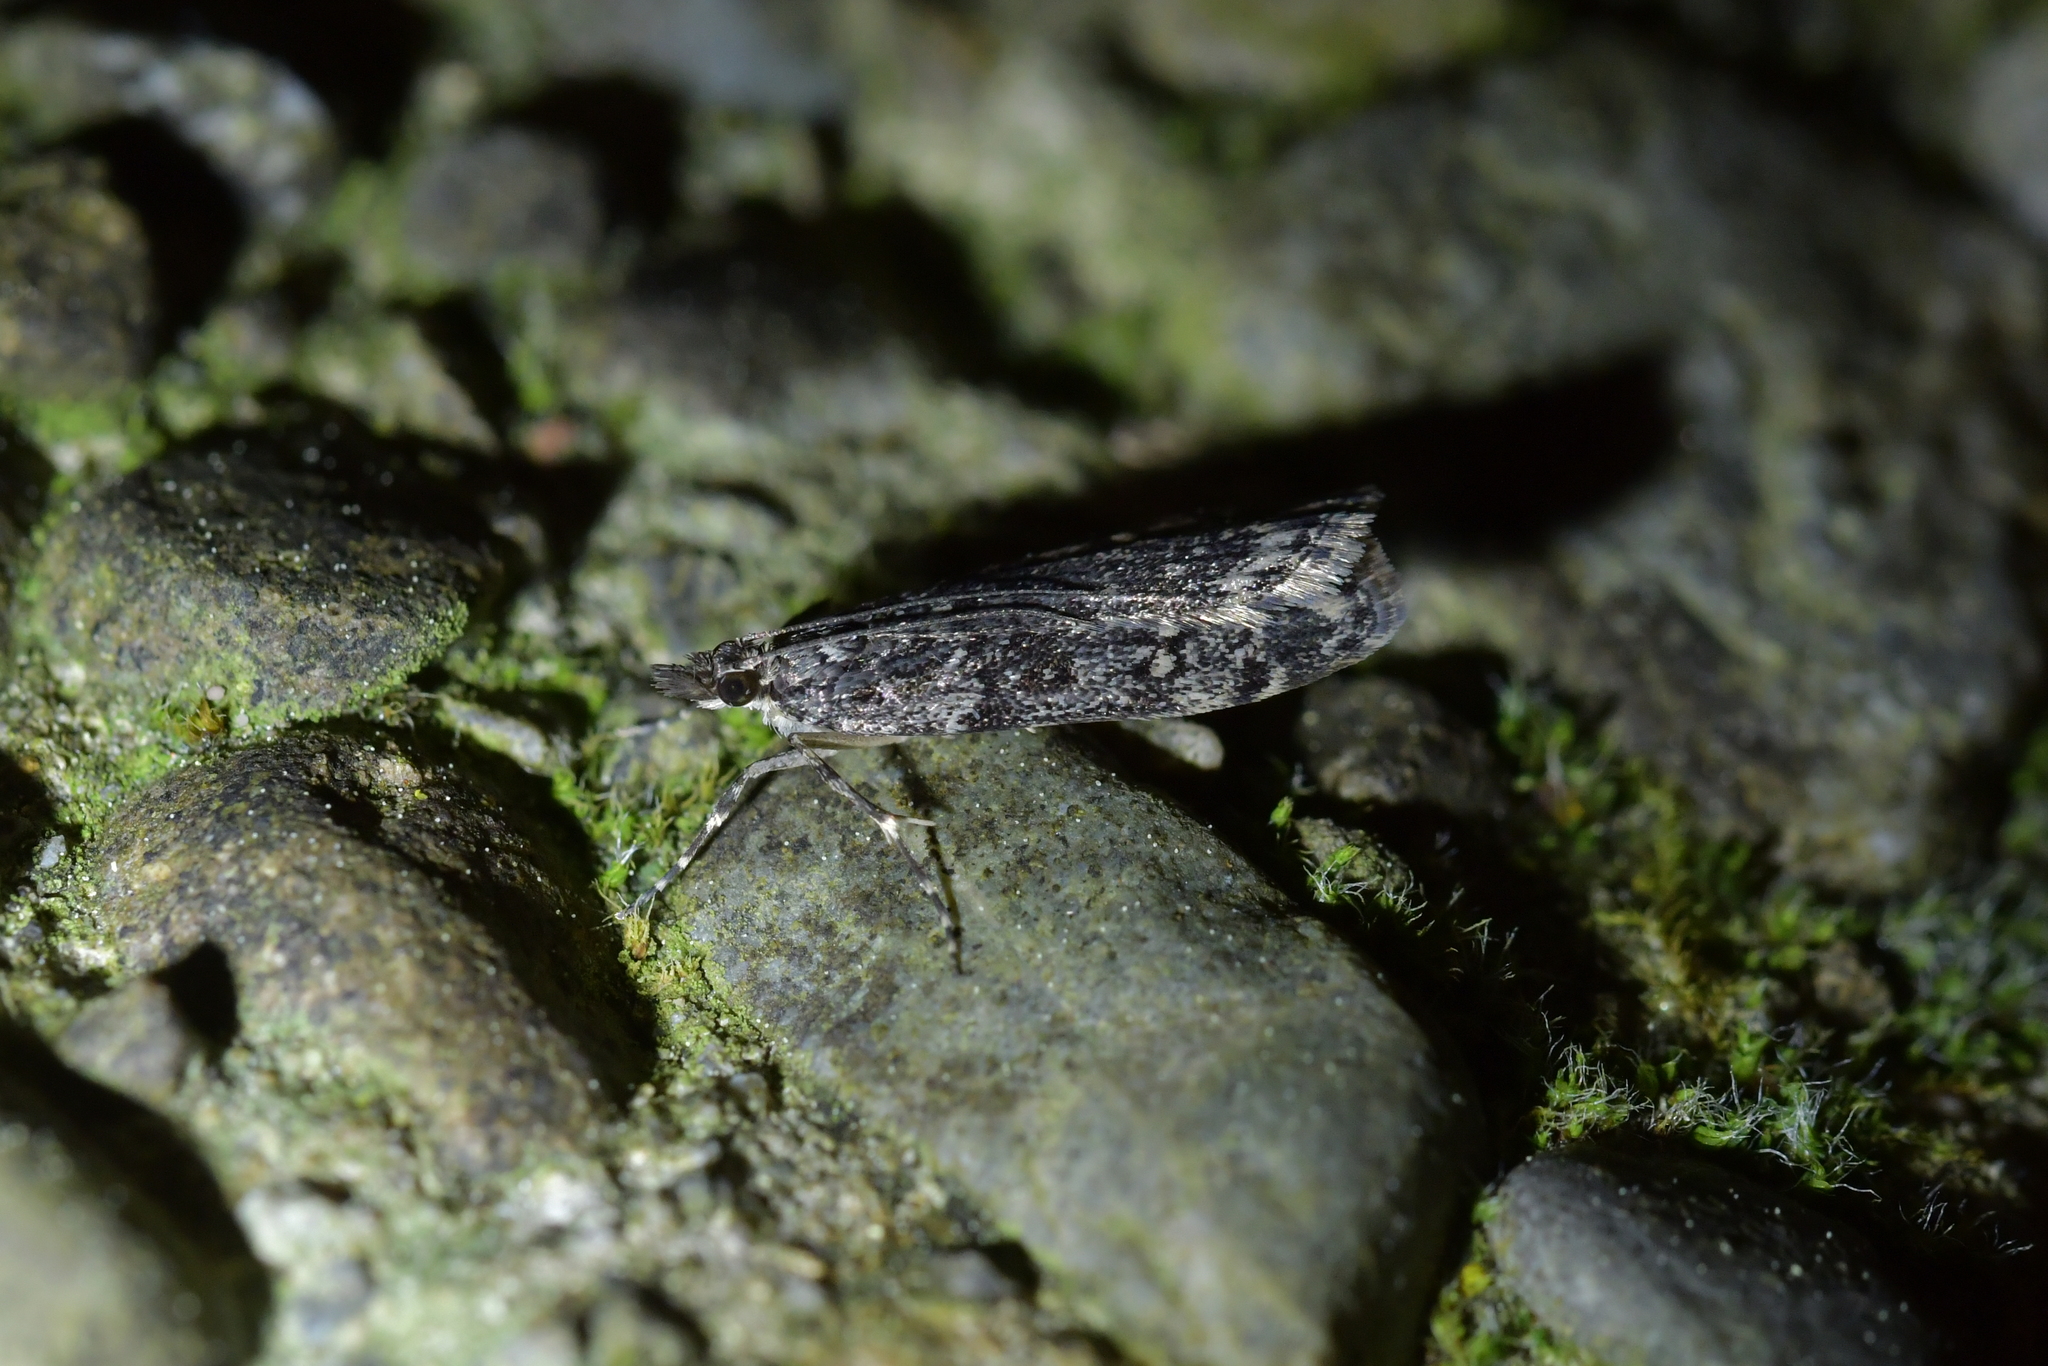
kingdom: Animalia
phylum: Arthropoda
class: Insecta
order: Lepidoptera
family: Crambidae
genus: Eudonia
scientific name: Eudonia philerga
